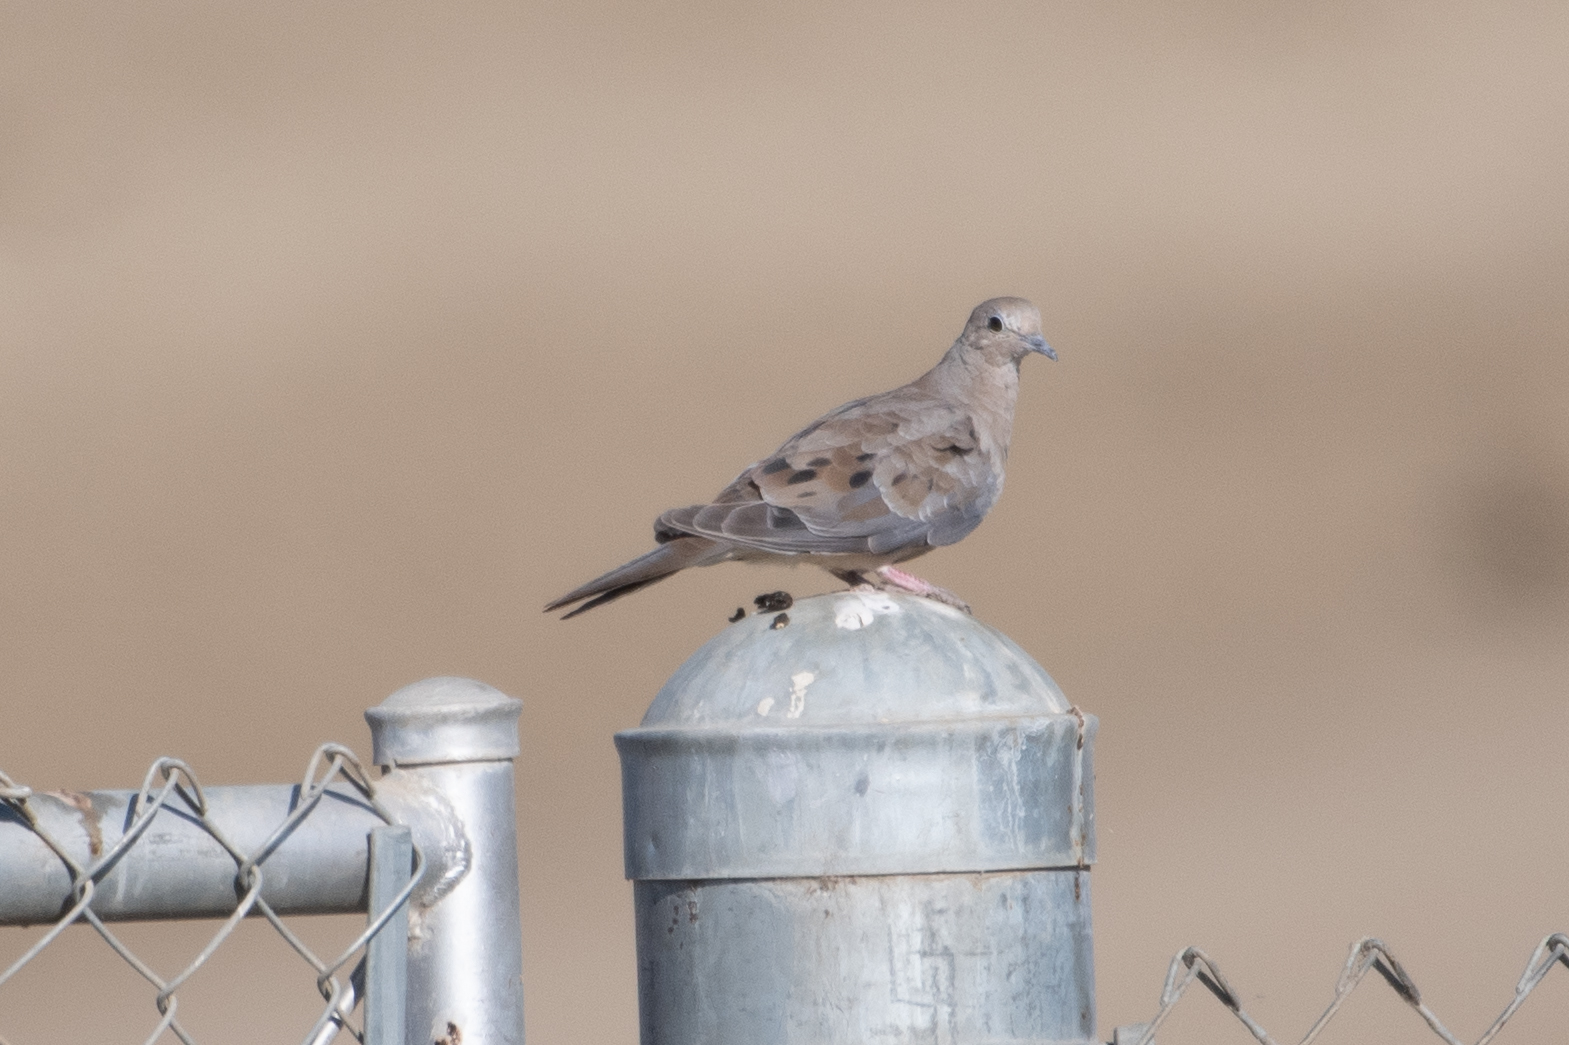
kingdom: Animalia
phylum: Chordata
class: Aves
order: Columbiformes
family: Columbidae
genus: Zenaida
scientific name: Zenaida macroura
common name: Mourning dove
